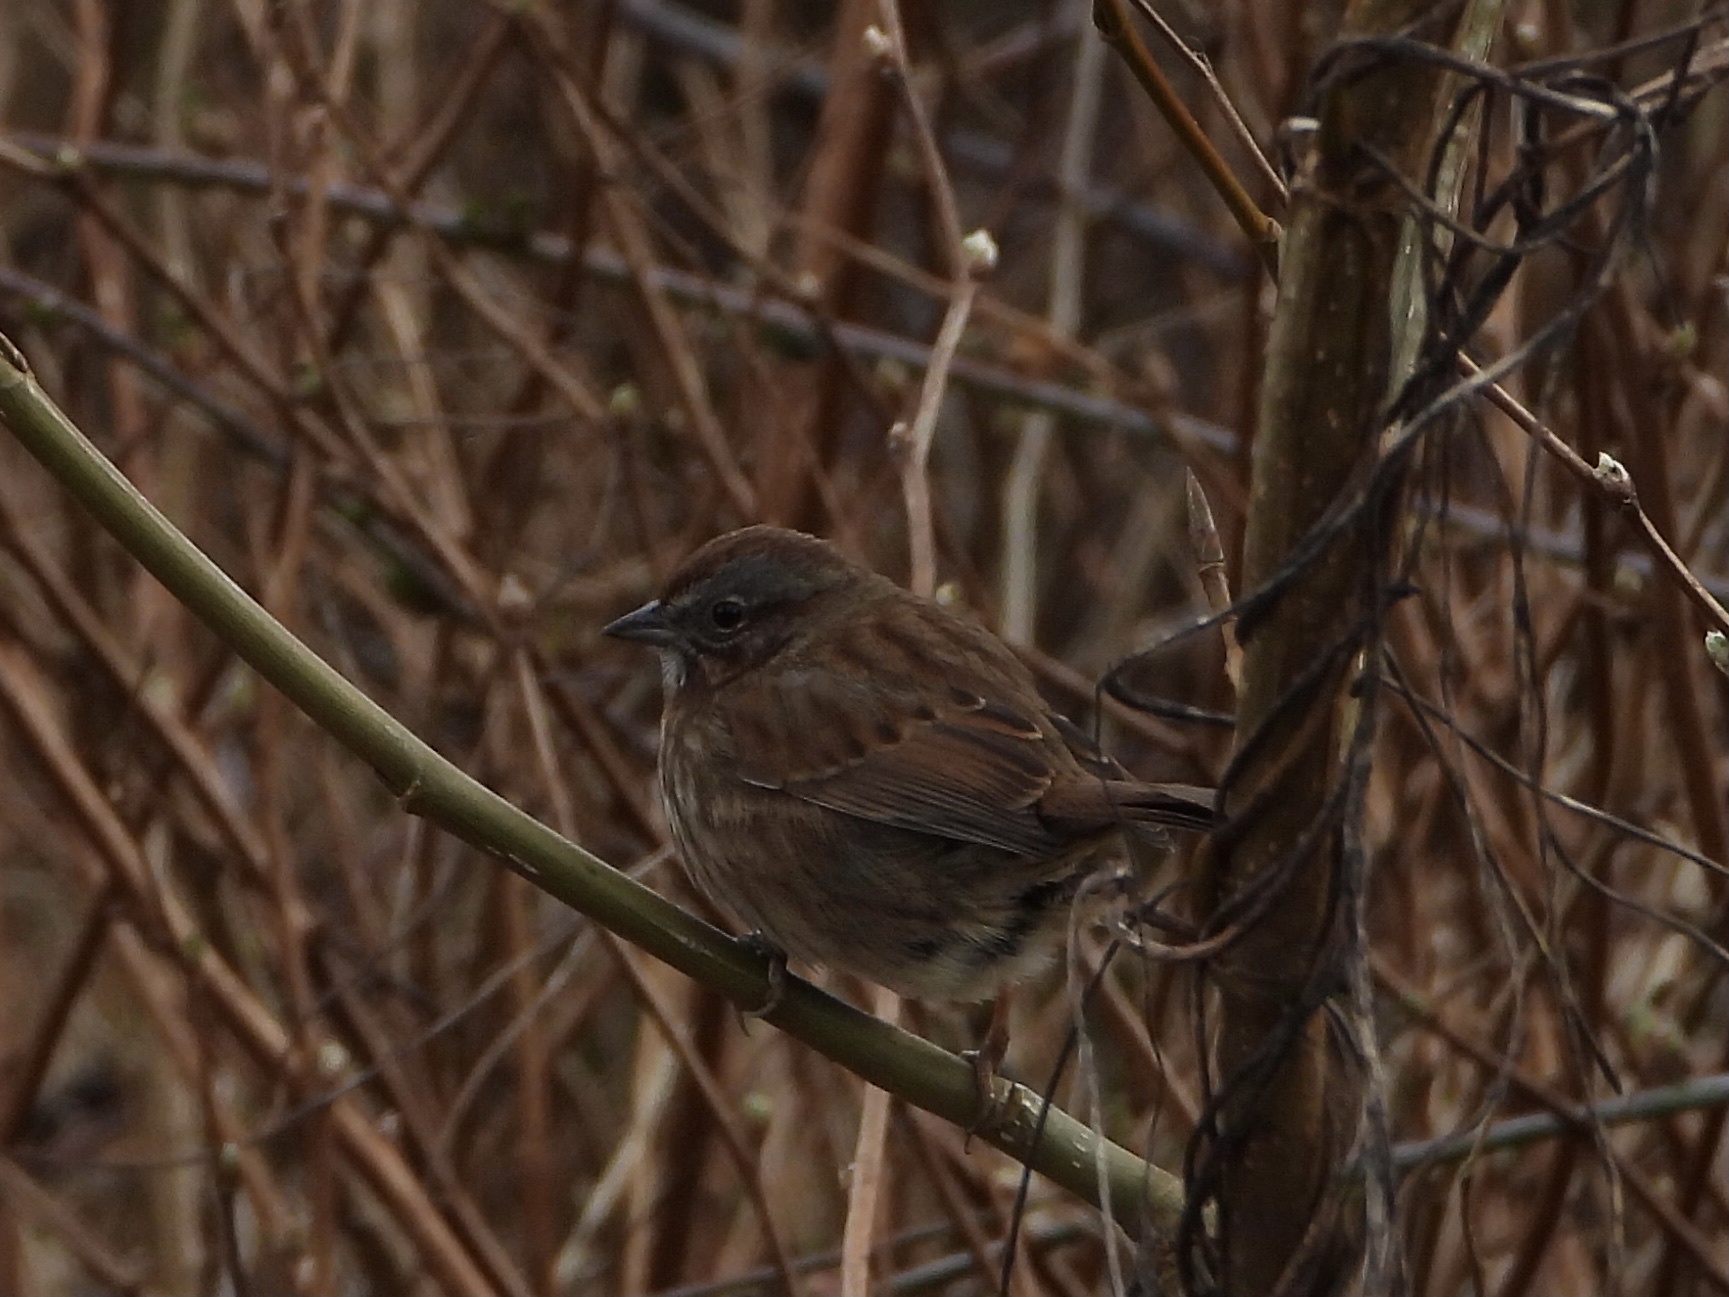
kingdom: Animalia
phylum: Chordata
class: Aves
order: Passeriformes
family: Passerellidae
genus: Melospiza
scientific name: Melospiza melodia
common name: Song sparrow
